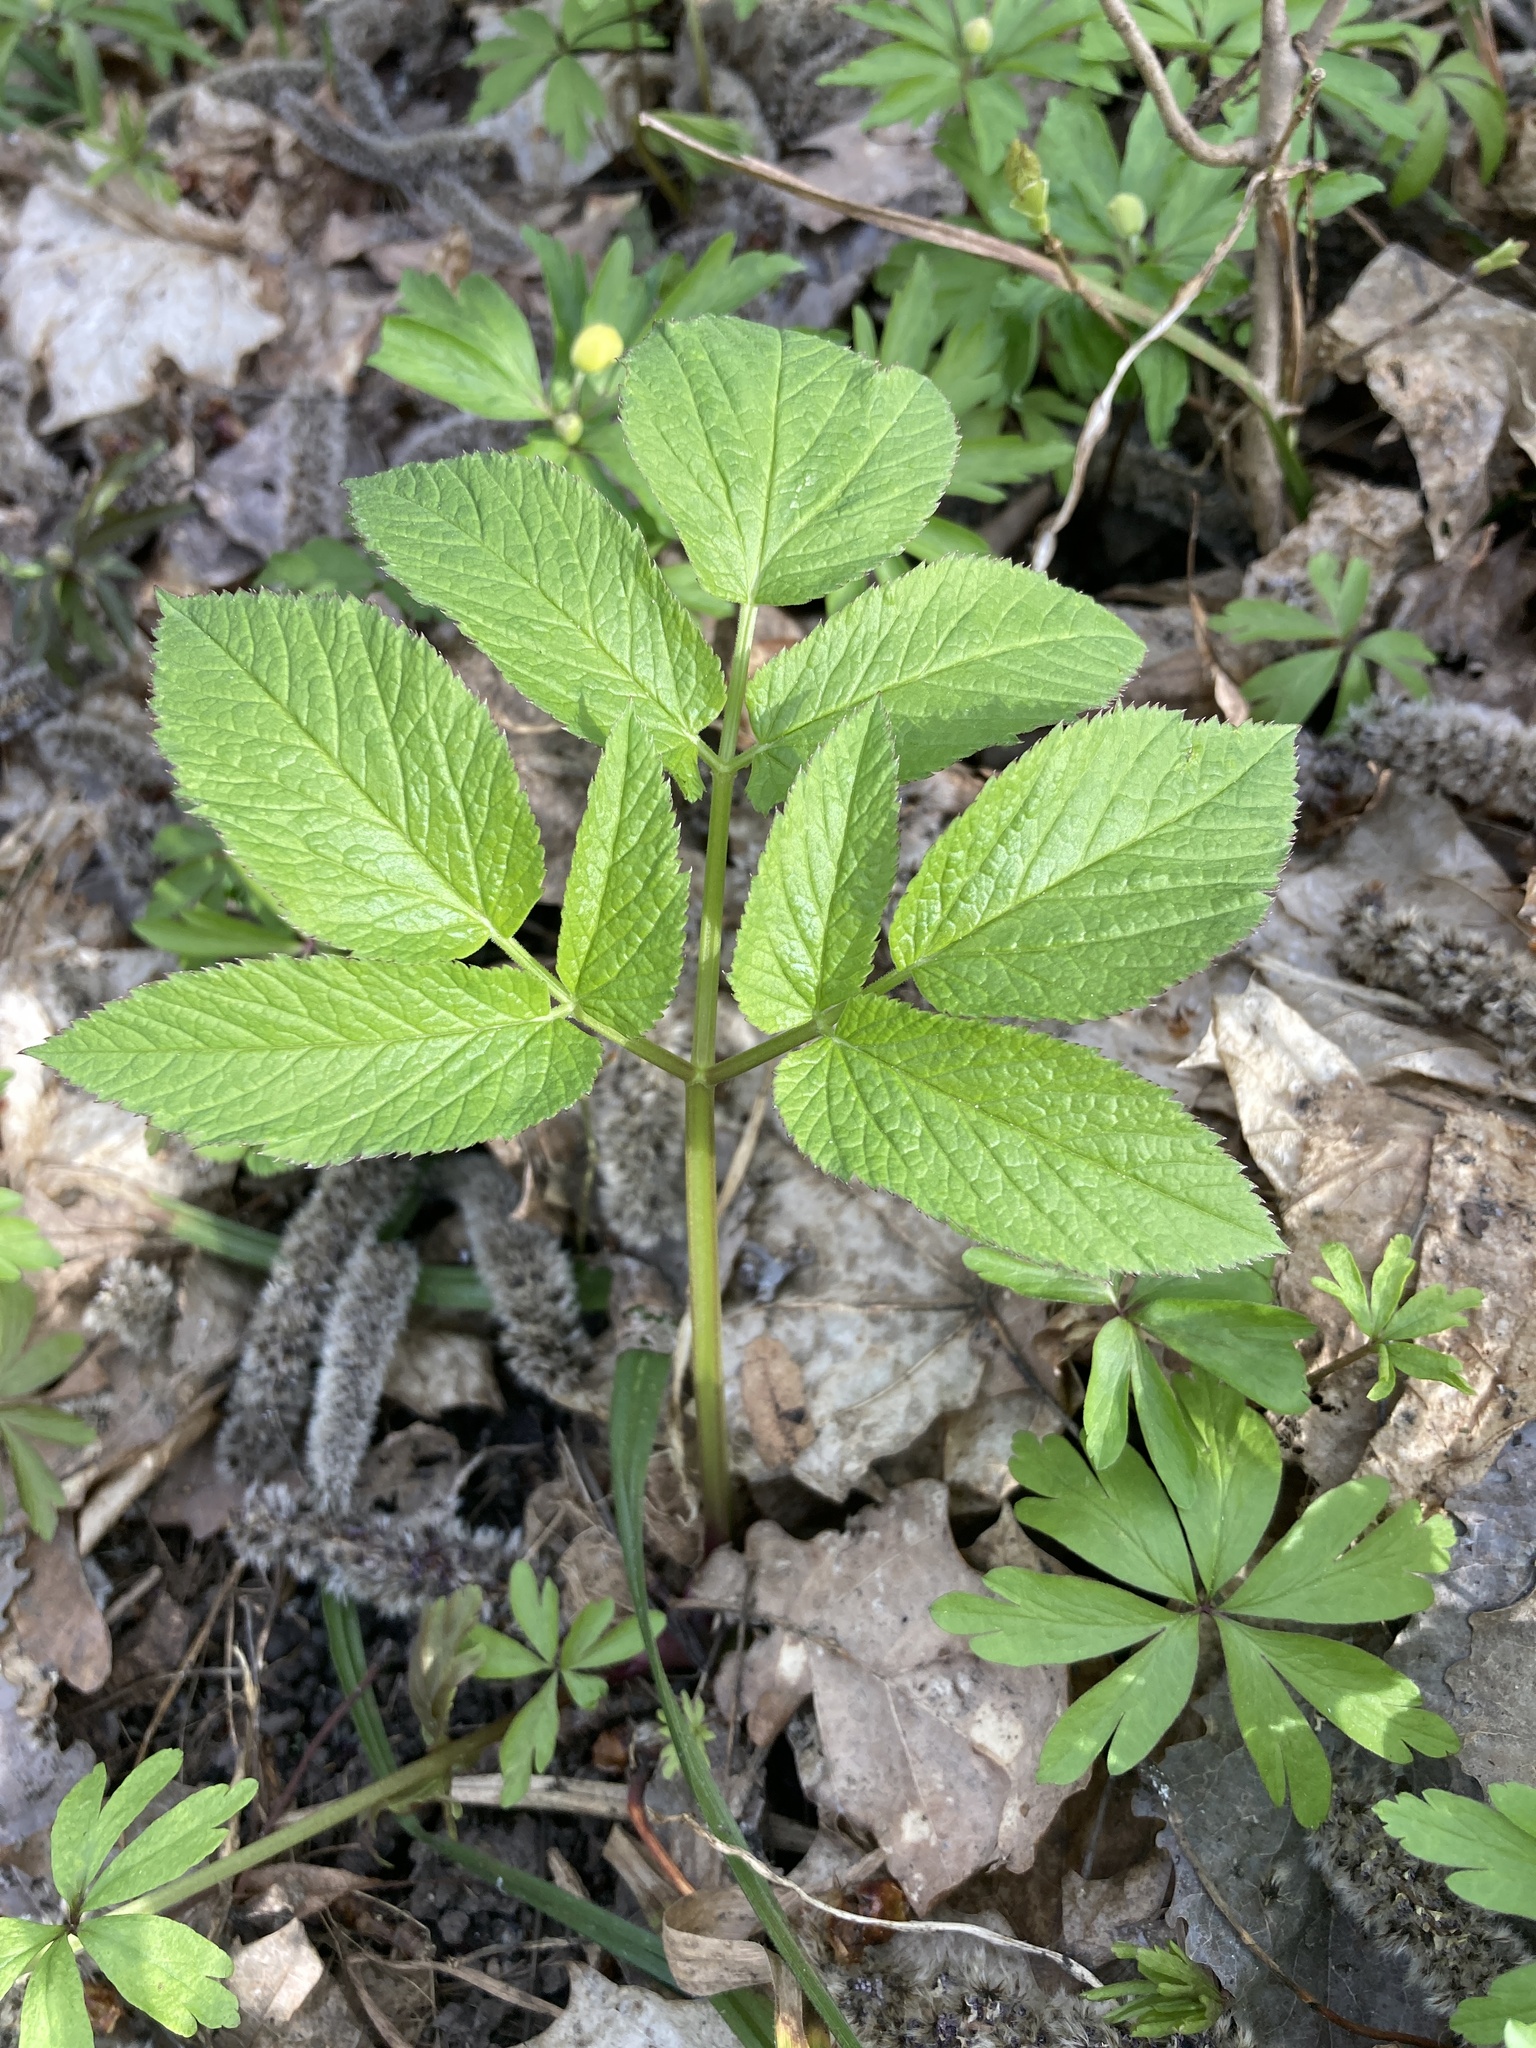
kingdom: Plantae
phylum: Tracheophyta
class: Magnoliopsida
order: Apiales
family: Apiaceae
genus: Aegopodium
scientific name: Aegopodium podagraria
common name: Ground-elder
